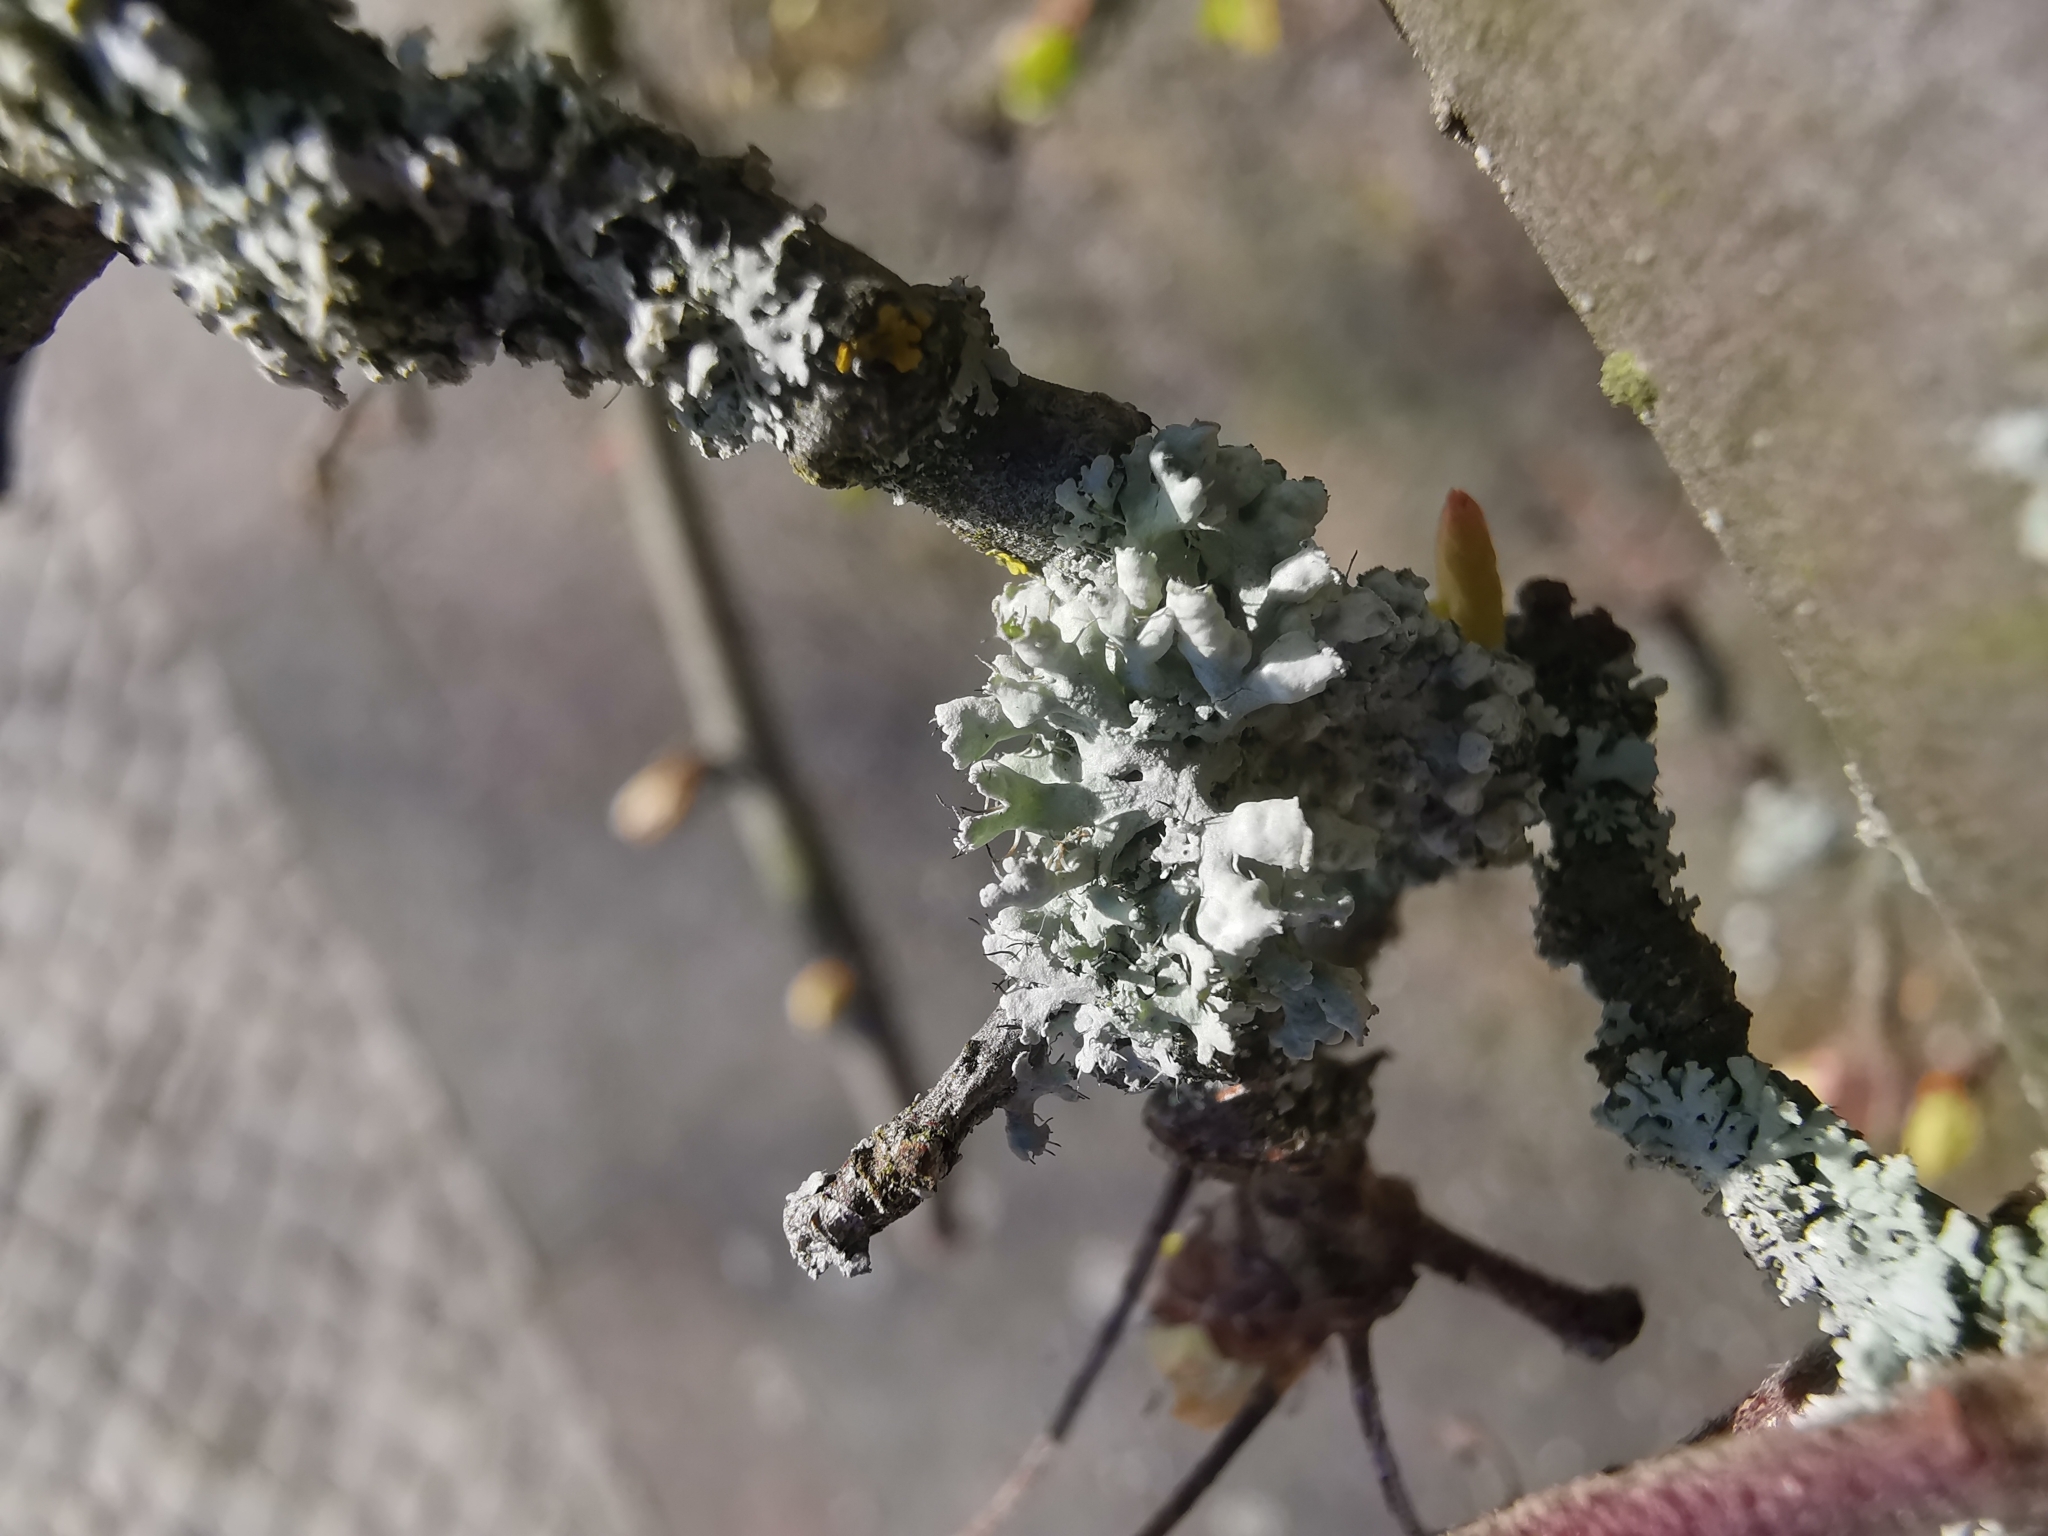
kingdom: Fungi
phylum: Ascomycota
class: Lecanoromycetes
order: Caliciales
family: Physciaceae
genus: Physcia
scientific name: Physcia adscendens
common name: Hooded rosette lichen
